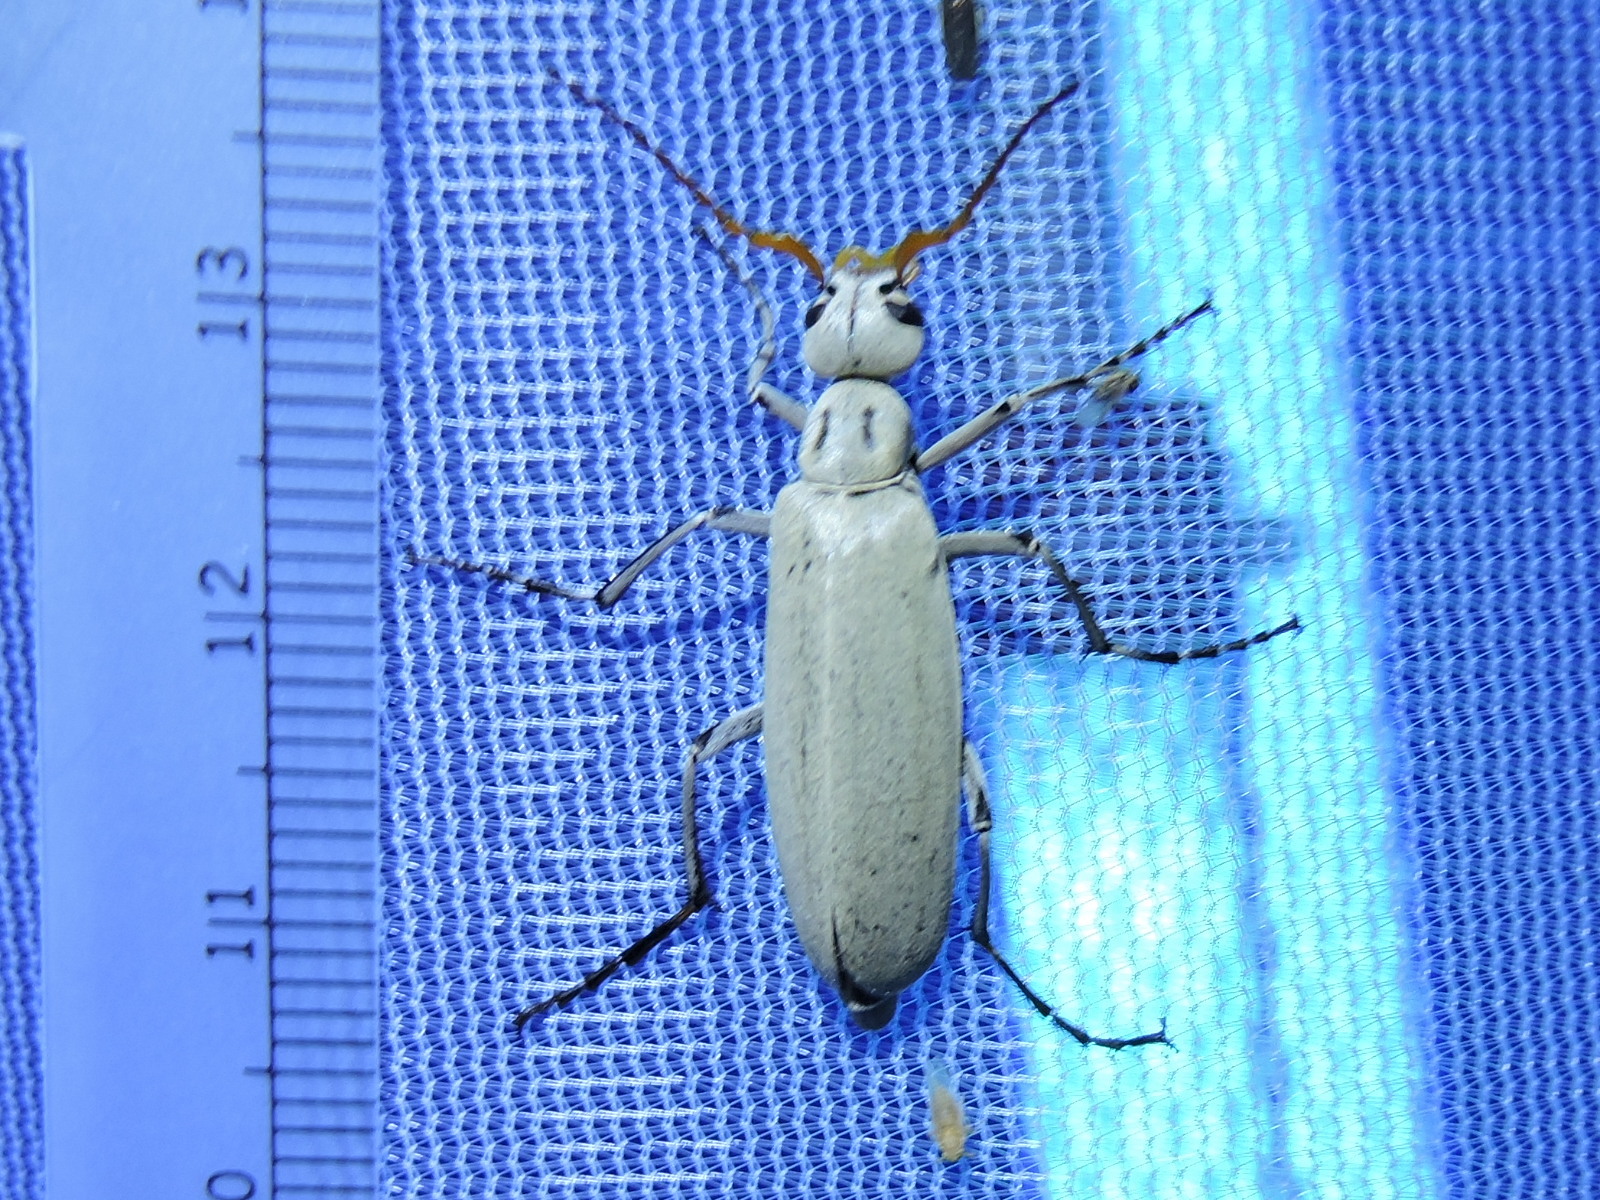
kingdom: Animalia
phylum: Arthropoda
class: Insecta
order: Coleoptera
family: Meloidae
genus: Epicauta
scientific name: Epicauta albida
